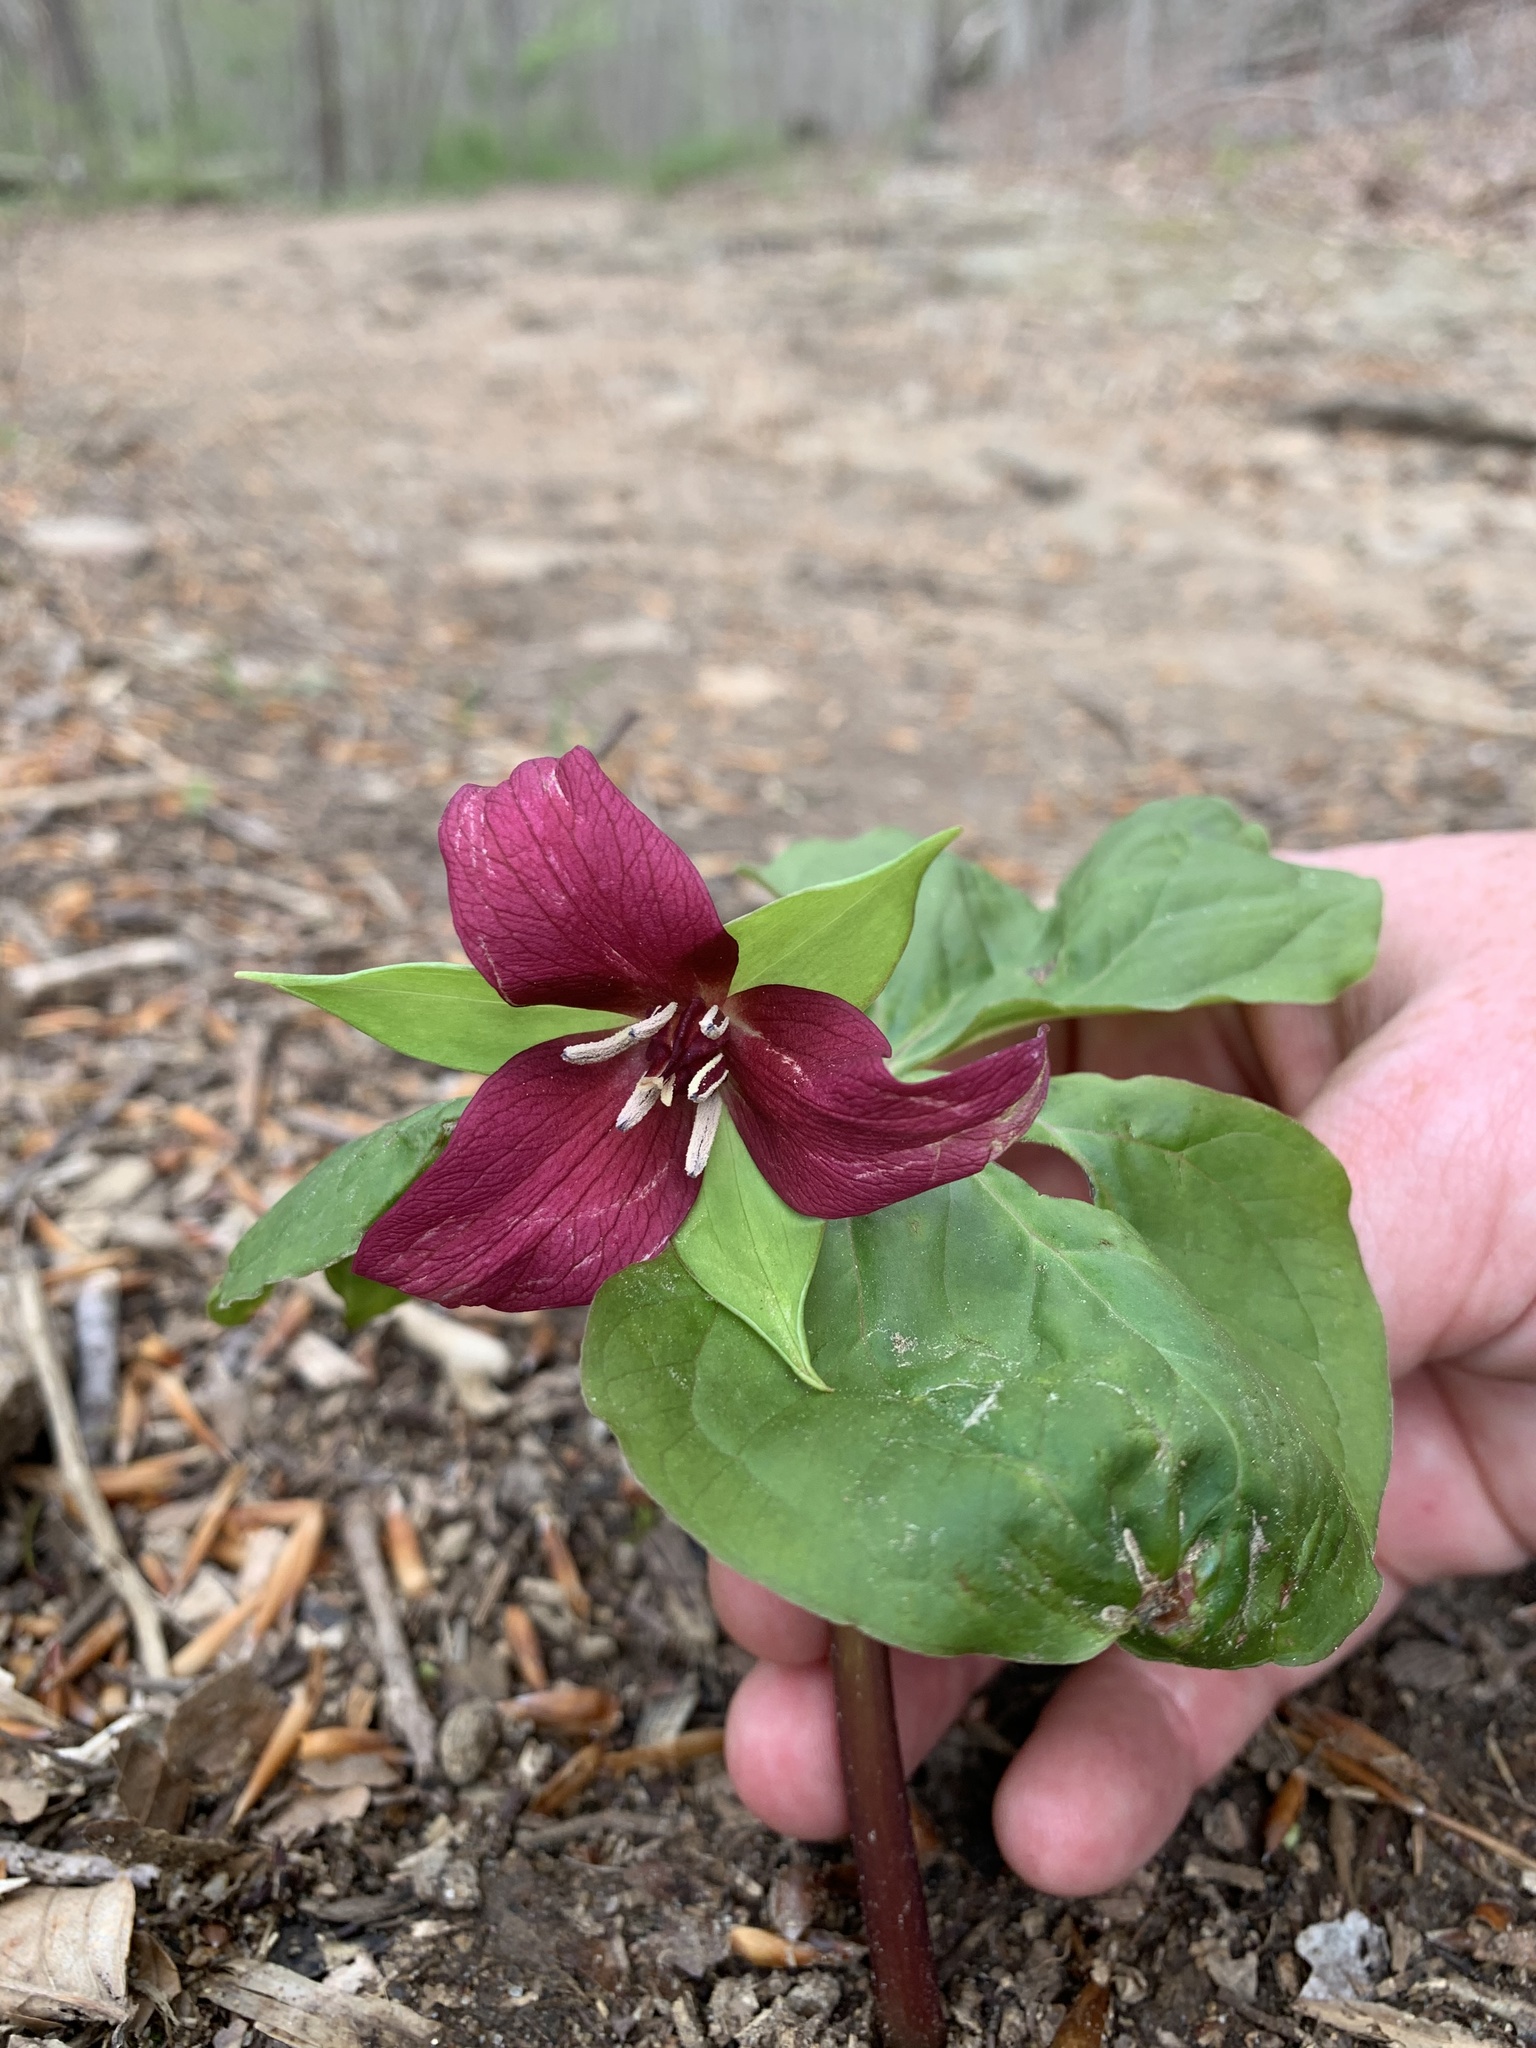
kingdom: Plantae
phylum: Tracheophyta
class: Liliopsida
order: Liliales
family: Melanthiaceae
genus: Trillium
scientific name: Trillium erectum
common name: Purple trillium
